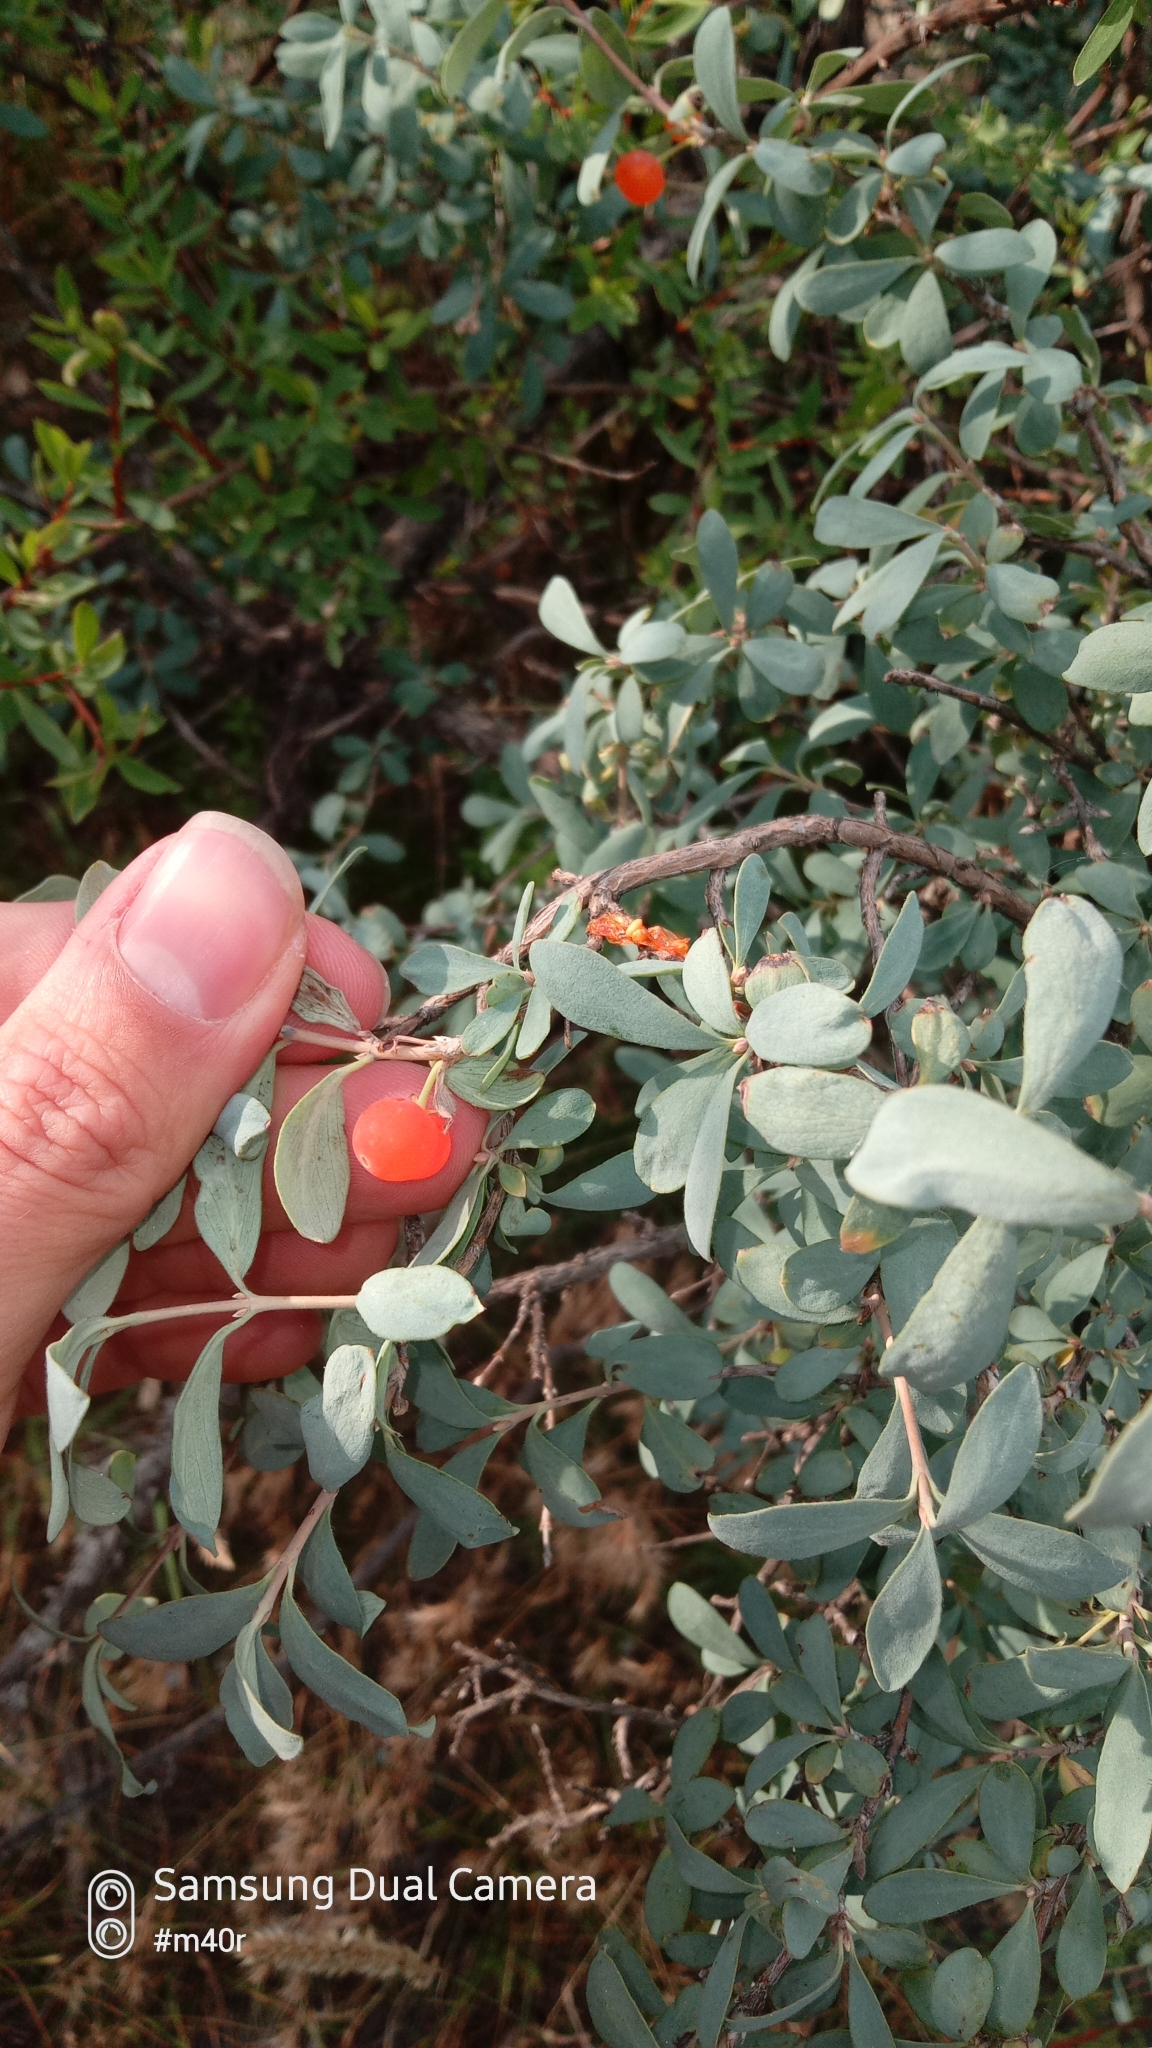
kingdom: Plantae
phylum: Tracheophyta
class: Magnoliopsida
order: Dipsacales
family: Caprifoliaceae
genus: Lonicera
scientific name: Lonicera microphylla
